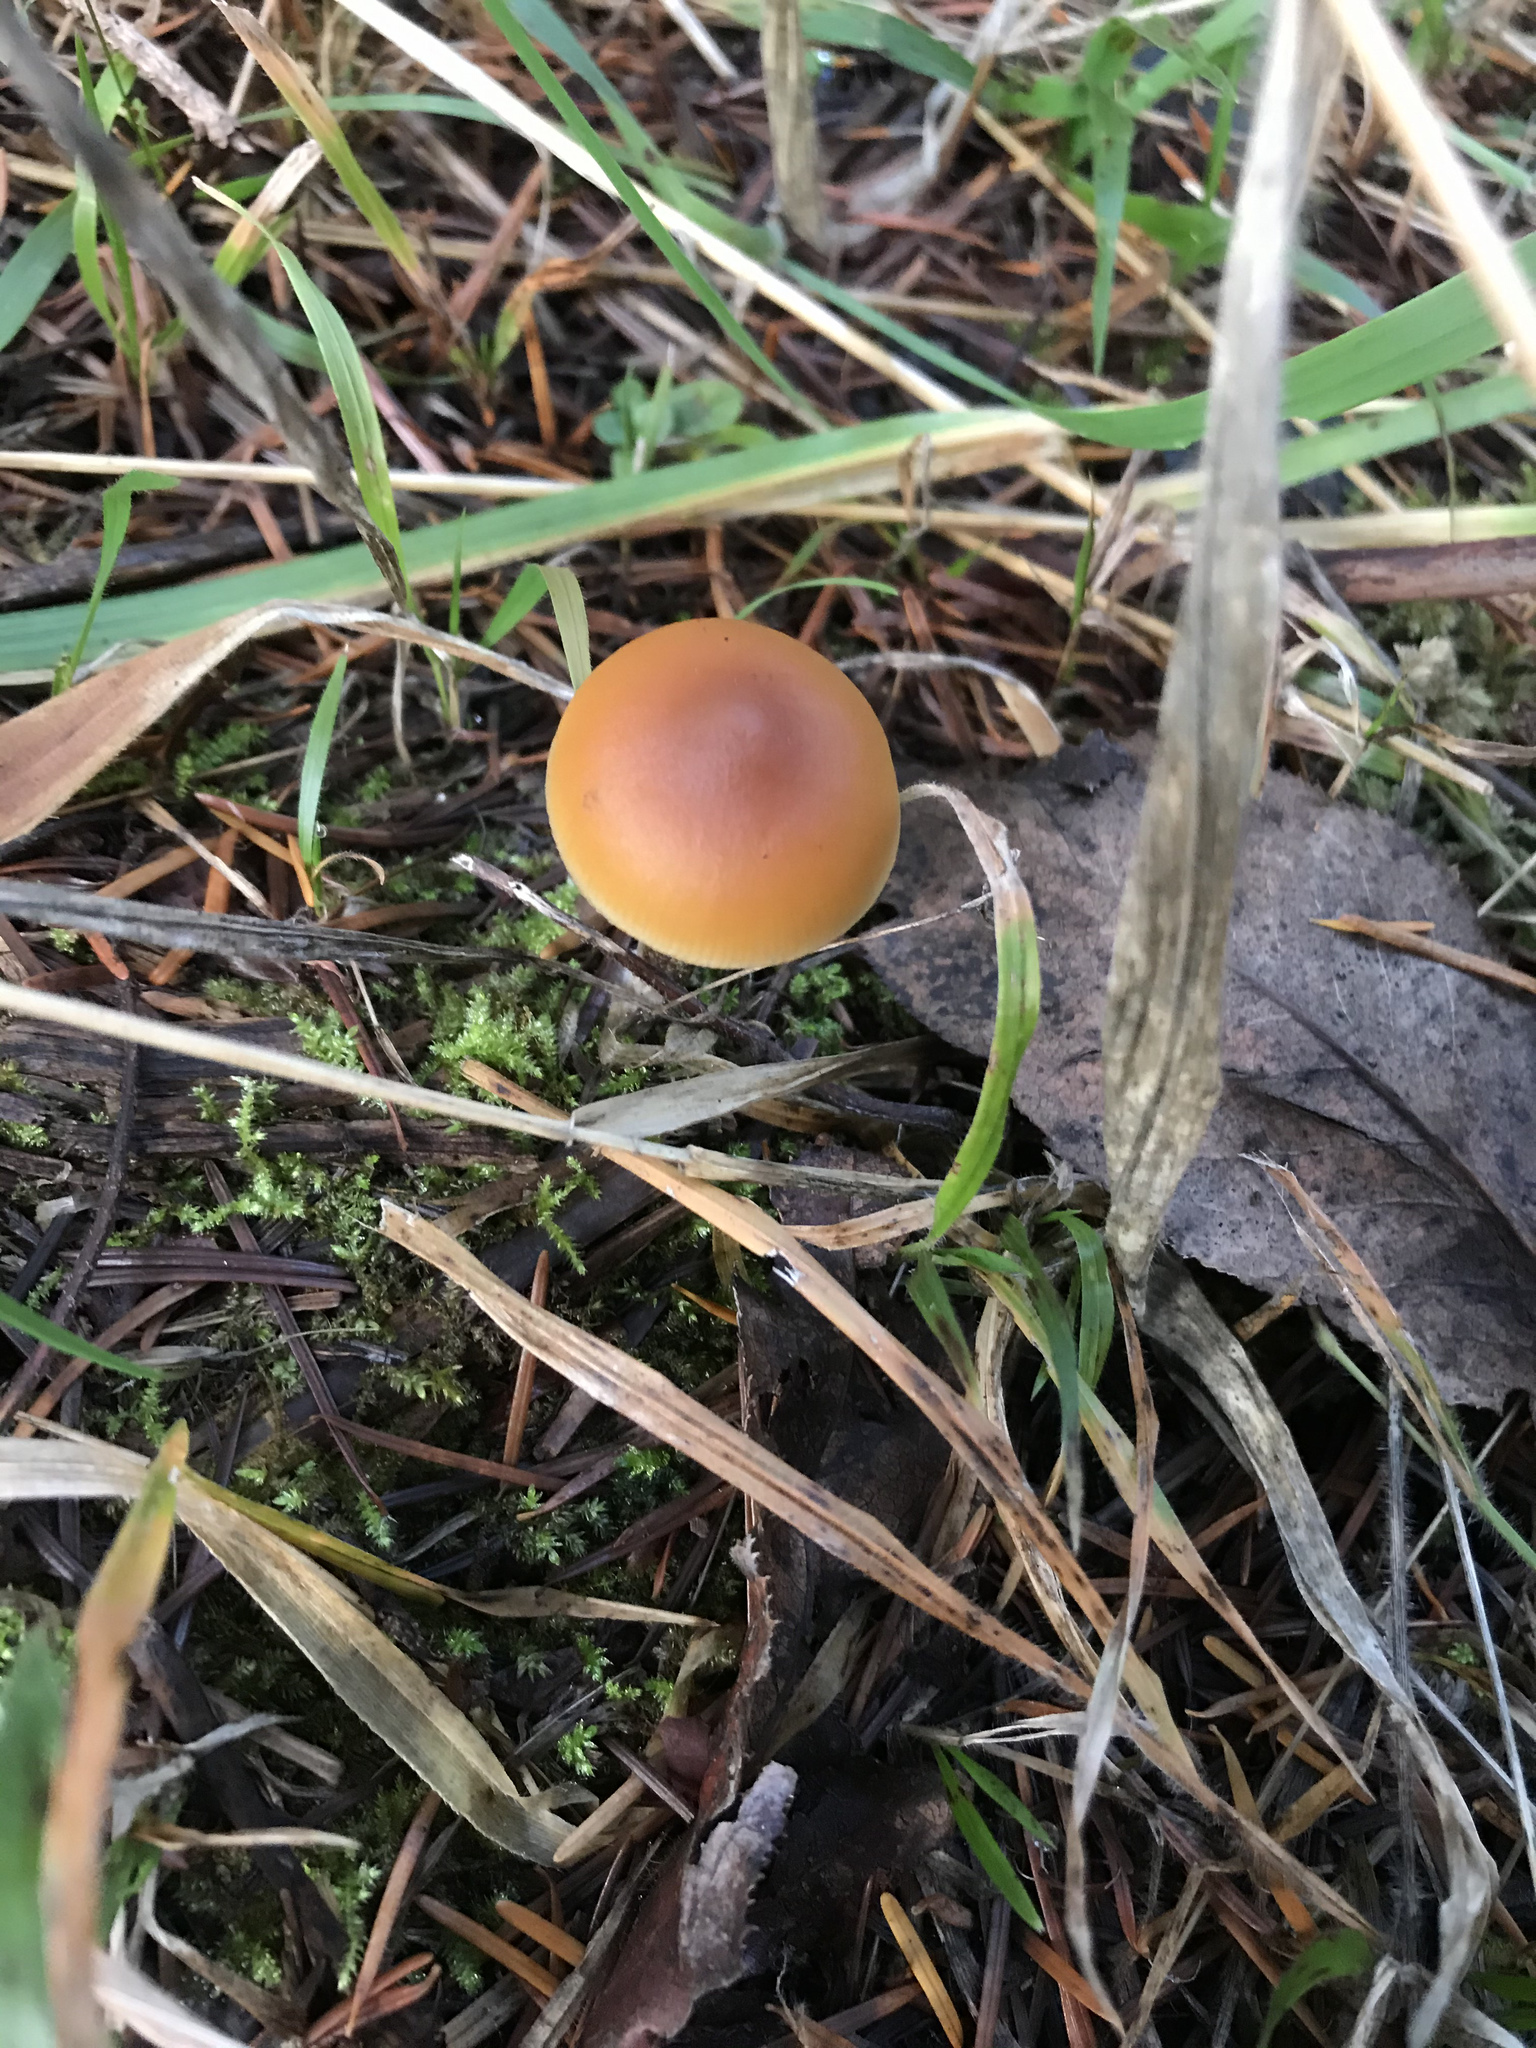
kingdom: Fungi
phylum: Basidiomycota
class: Agaricomycetes
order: Agaricales
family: Hymenogastraceae
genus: Galerina
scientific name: Galerina marginata
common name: Funeral bell
